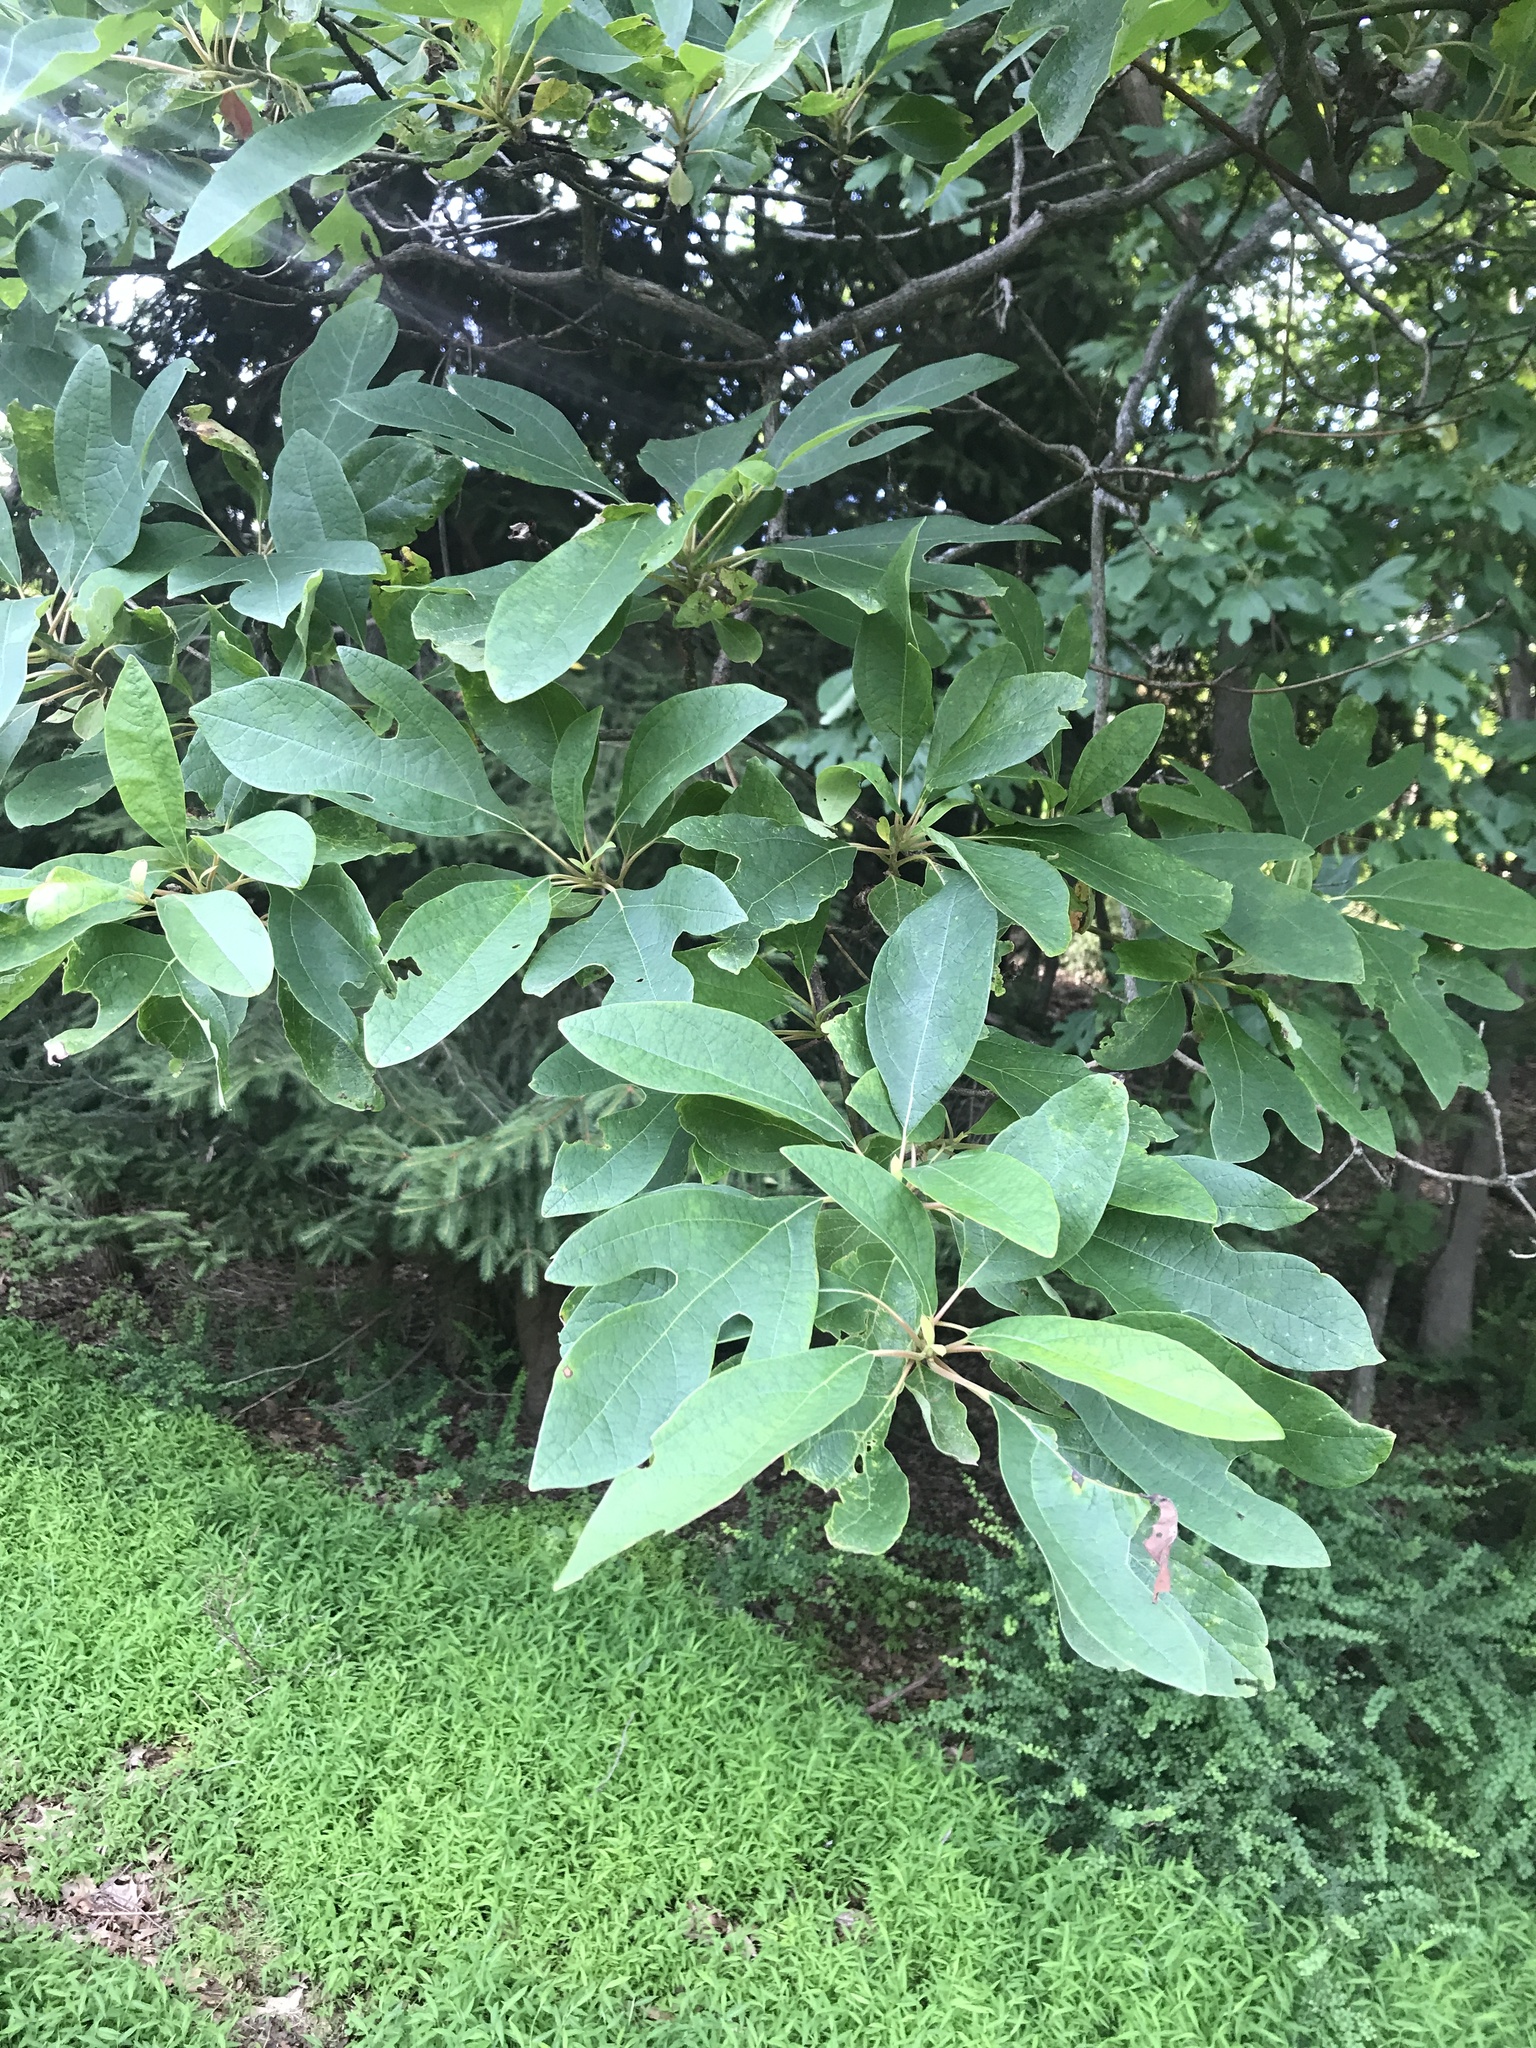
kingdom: Plantae
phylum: Tracheophyta
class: Magnoliopsida
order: Laurales
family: Lauraceae
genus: Sassafras
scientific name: Sassafras albidum
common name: Sassafras
